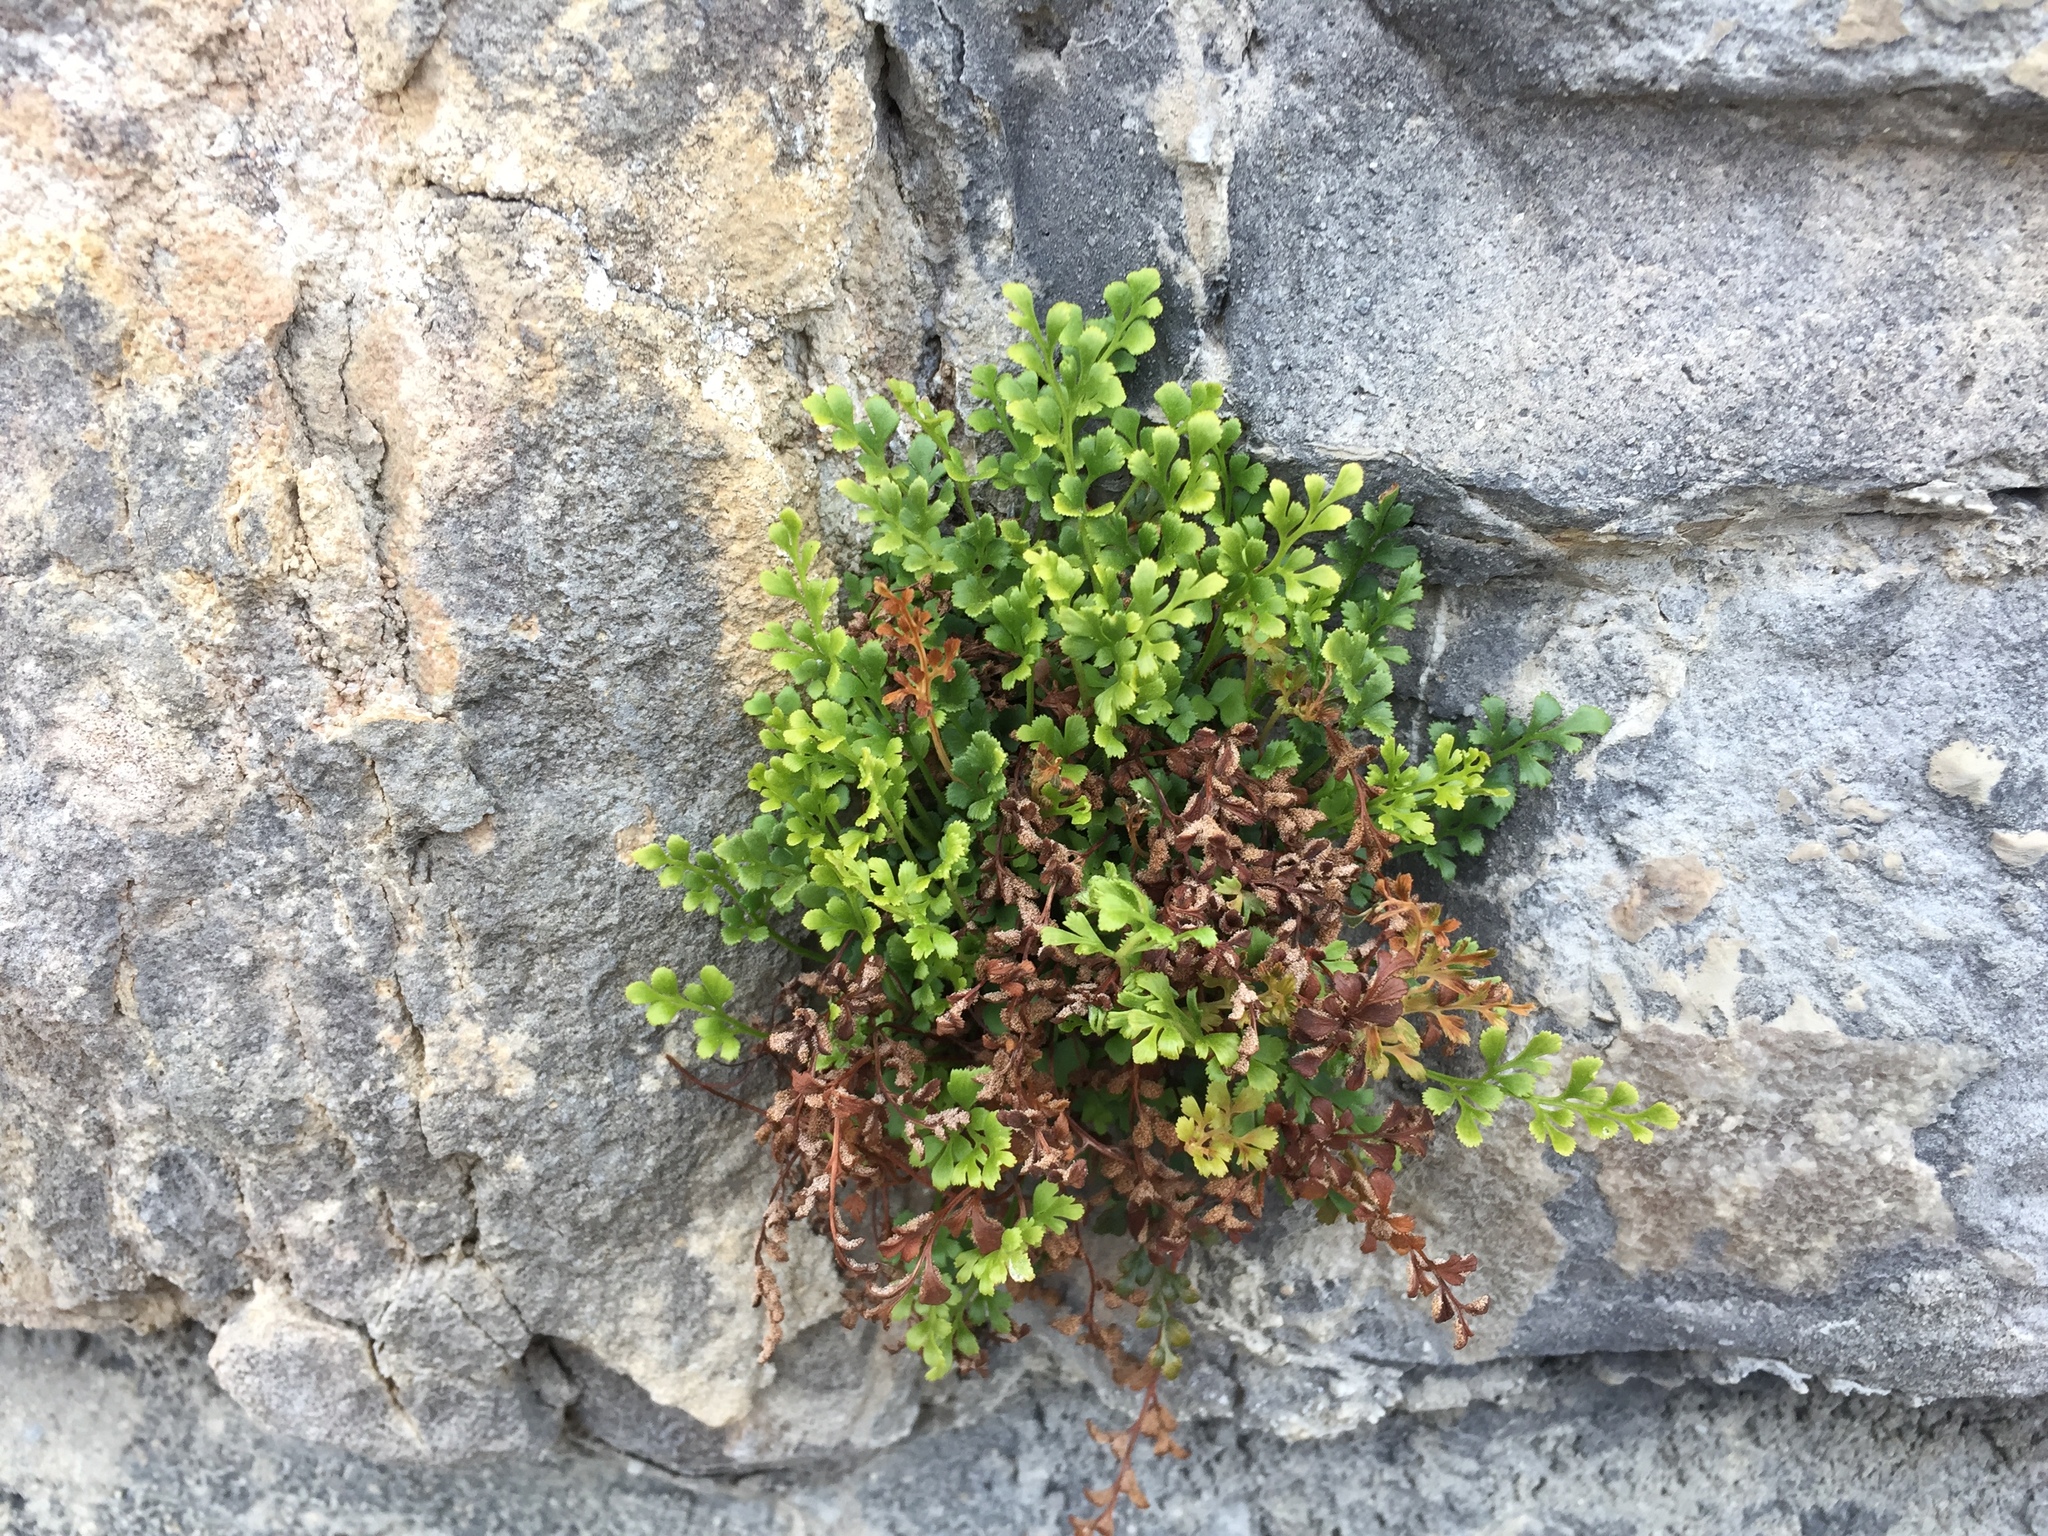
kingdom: Plantae
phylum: Tracheophyta
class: Polypodiopsida
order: Polypodiales
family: Aspleniaceae
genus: Asplenium
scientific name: Asplenium ruta-muraria
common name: Wall-rue
